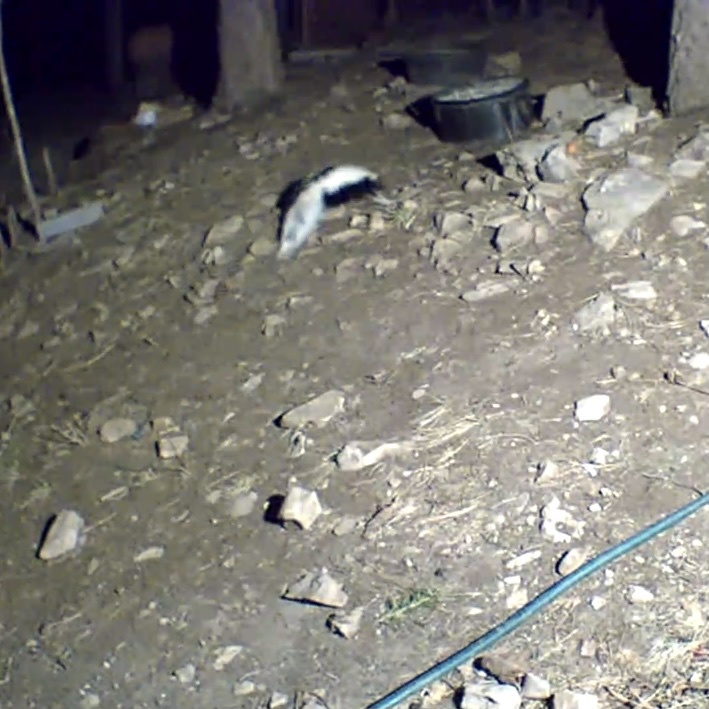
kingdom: Animalia
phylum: Chordata
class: Mammalia
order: Carnivora
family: Mephitidae
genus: Mephitis
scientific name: Mephitis mephitis
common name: Striped skunk
